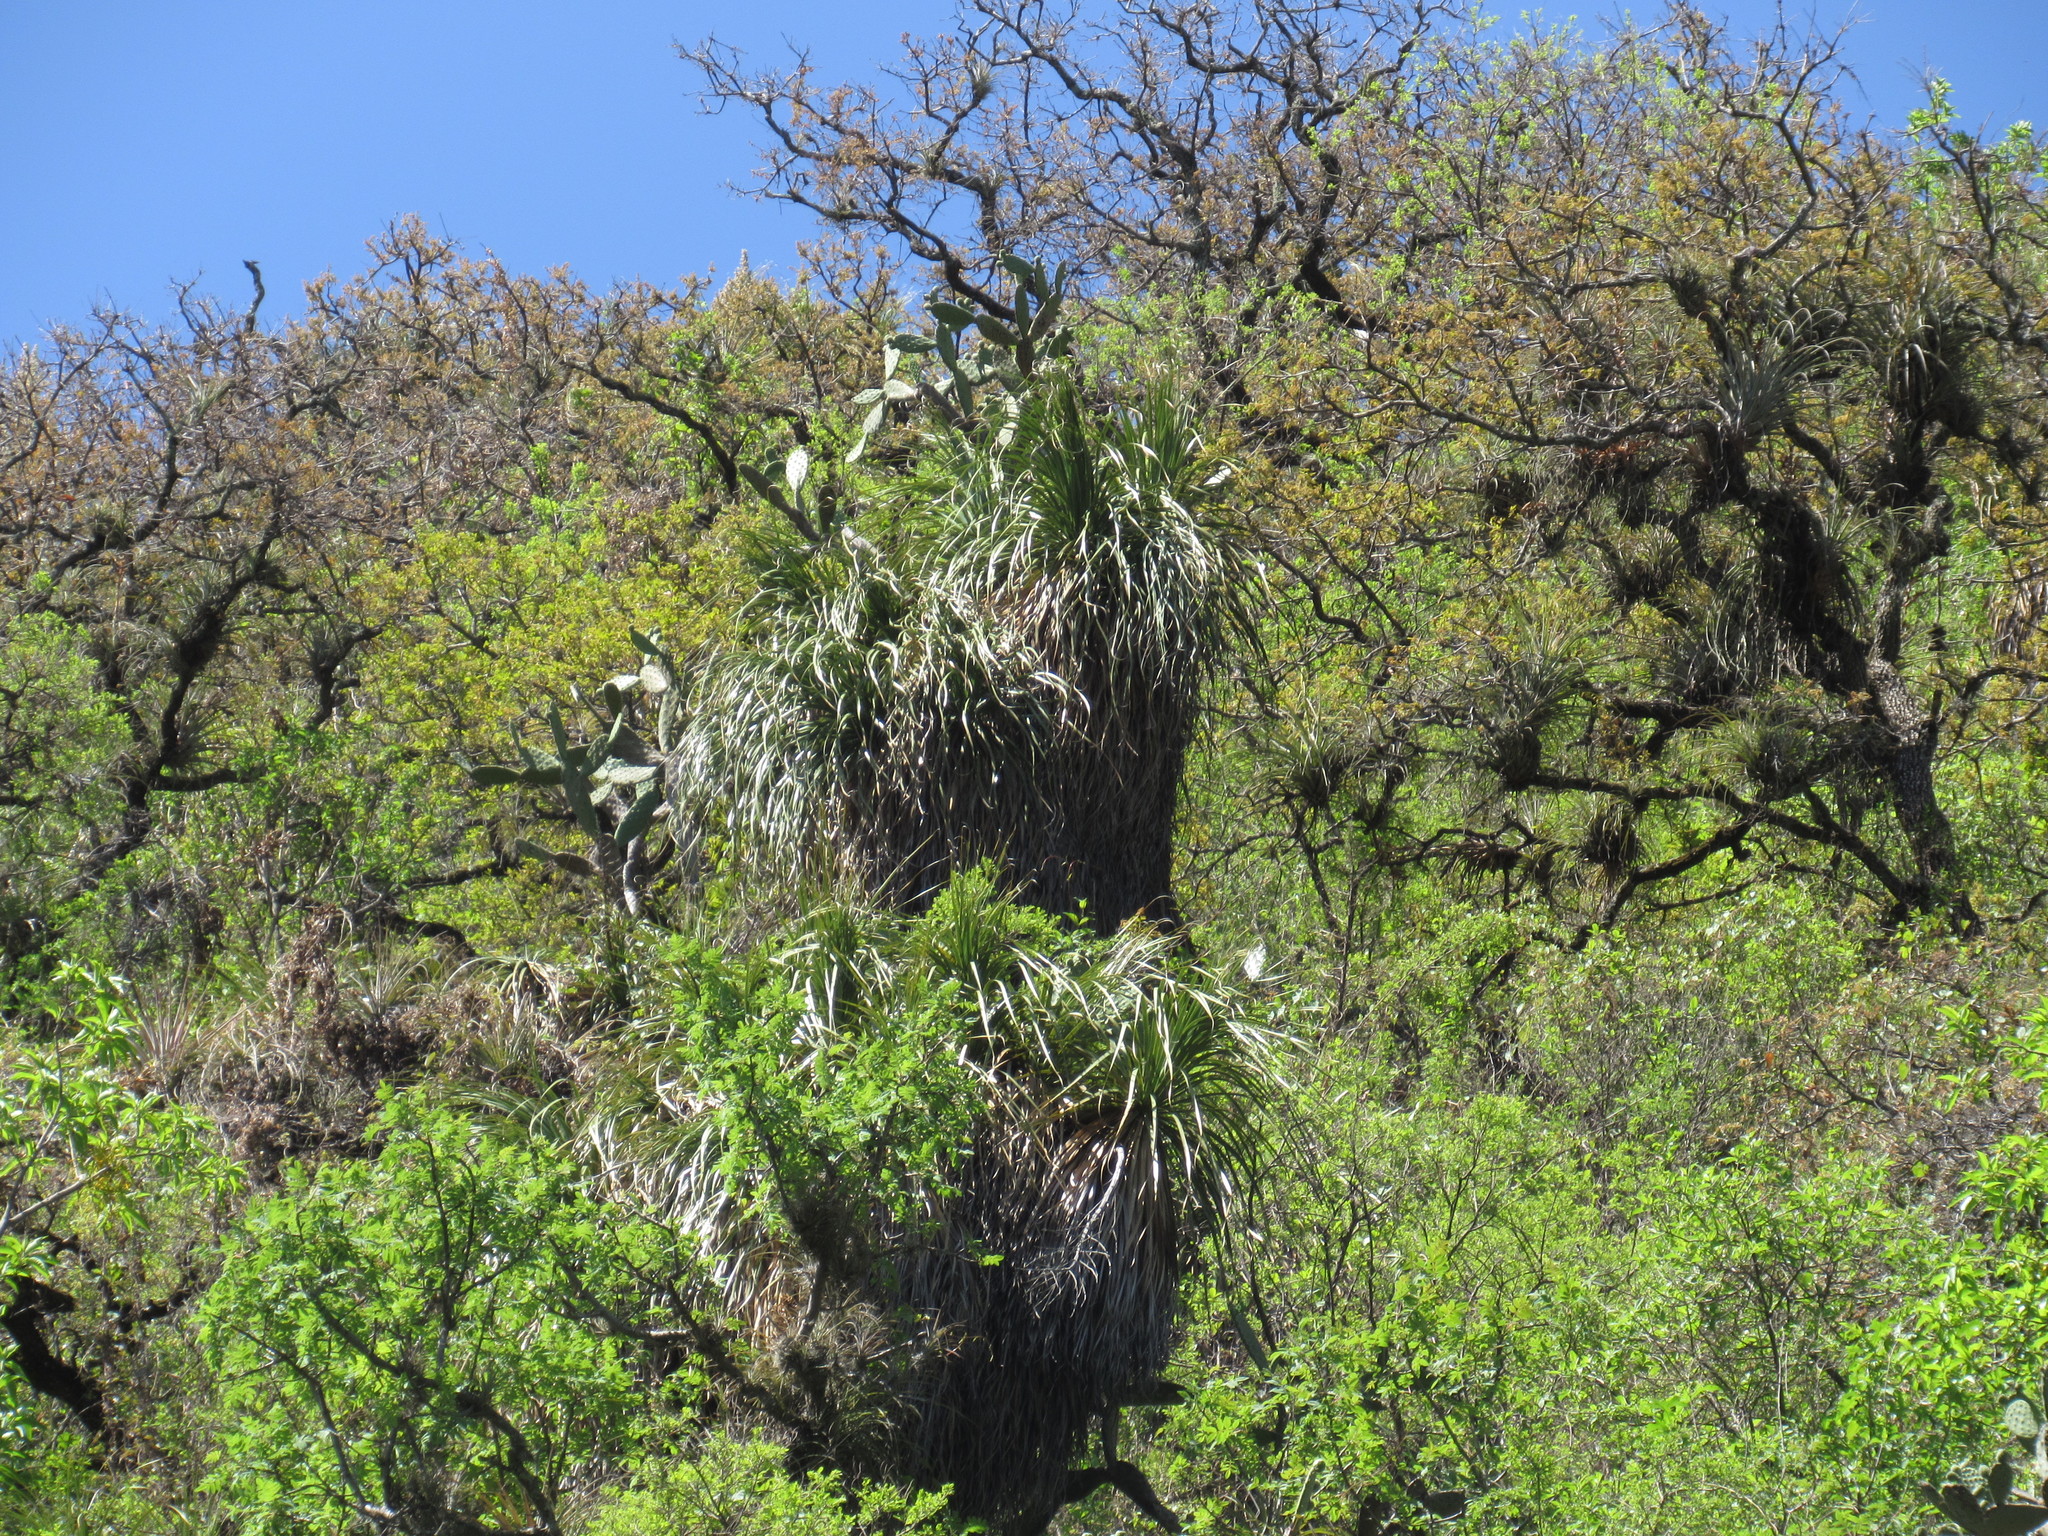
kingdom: Plantae
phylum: Tracheophyta
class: Liliopsida
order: Asparagales
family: Asparagaceae
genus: Nolina
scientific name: Nolina parviflora
